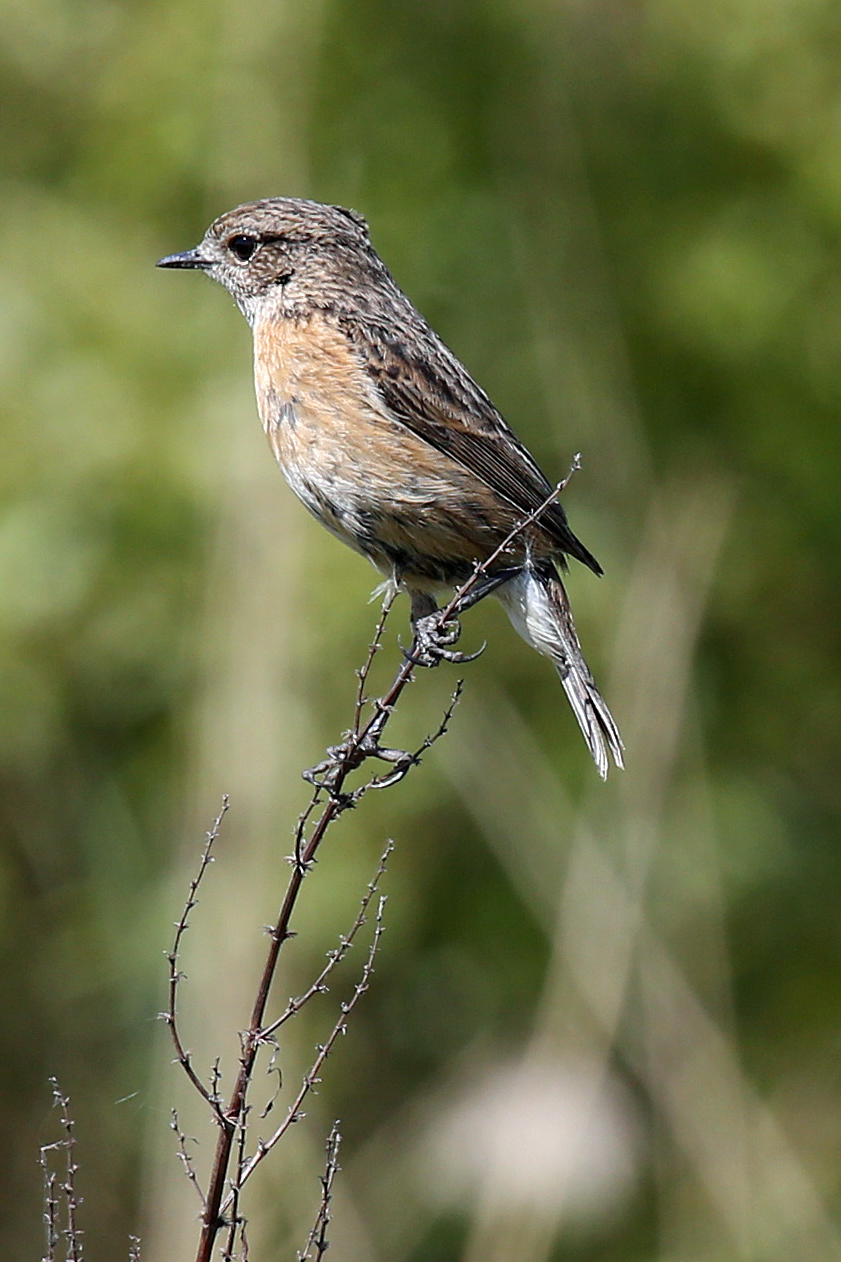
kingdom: Animalia
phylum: Chordata
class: Aves
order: Passeriformes
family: Muscicapidae
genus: Saxicola
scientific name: Saxicola rubicola
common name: European stonechat
